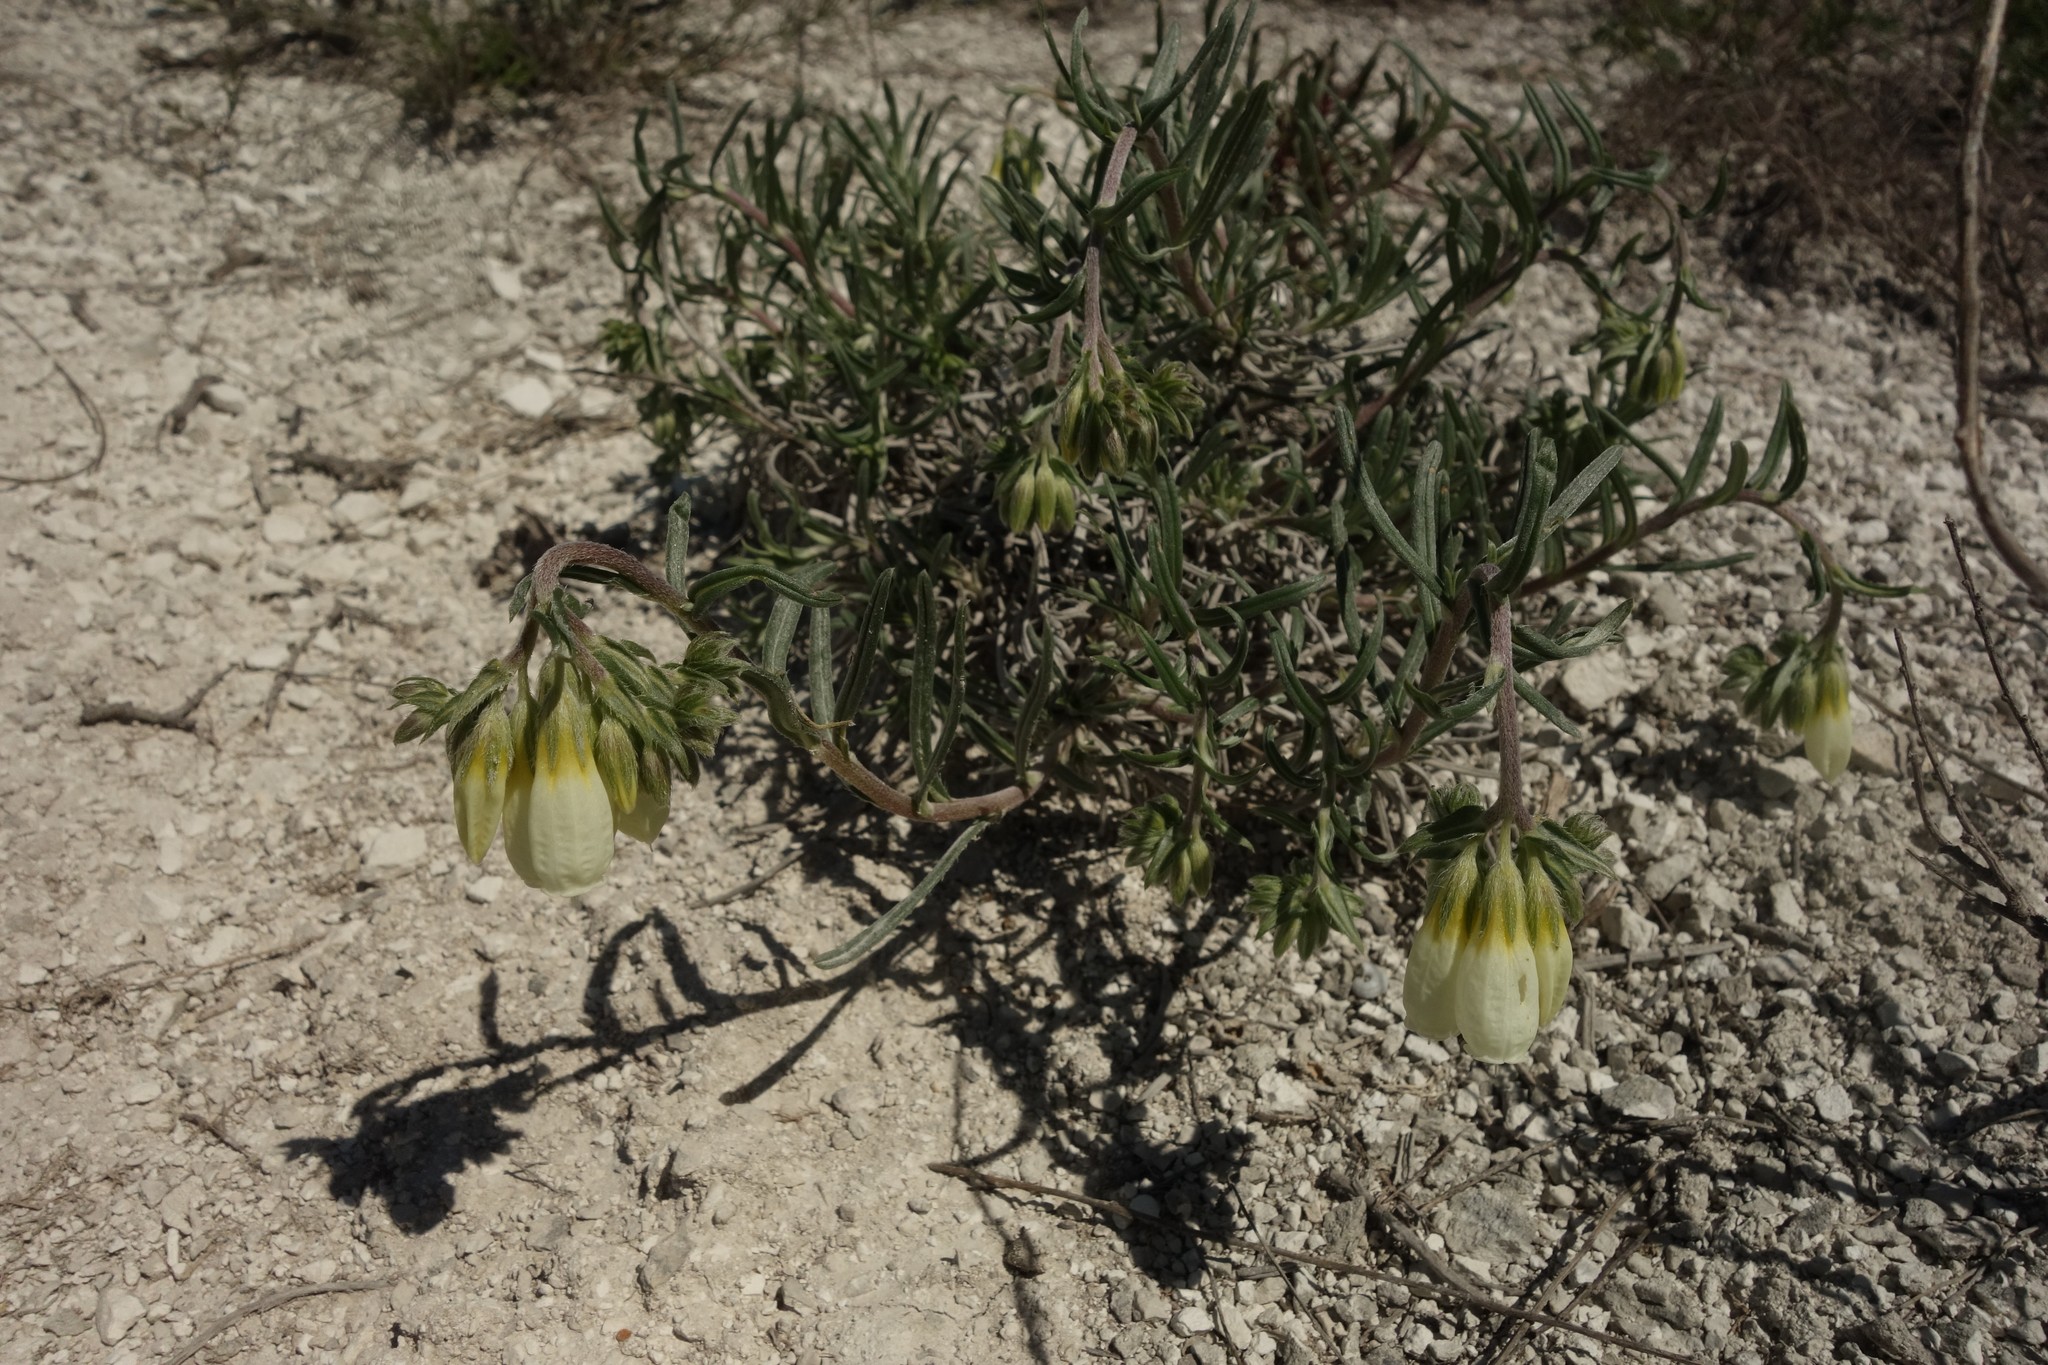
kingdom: Plantae
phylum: Tracheophyta
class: Magnoliopsida
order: Boraginales
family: Boraginaceae
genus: Onosma
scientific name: Onosma simplicissima
